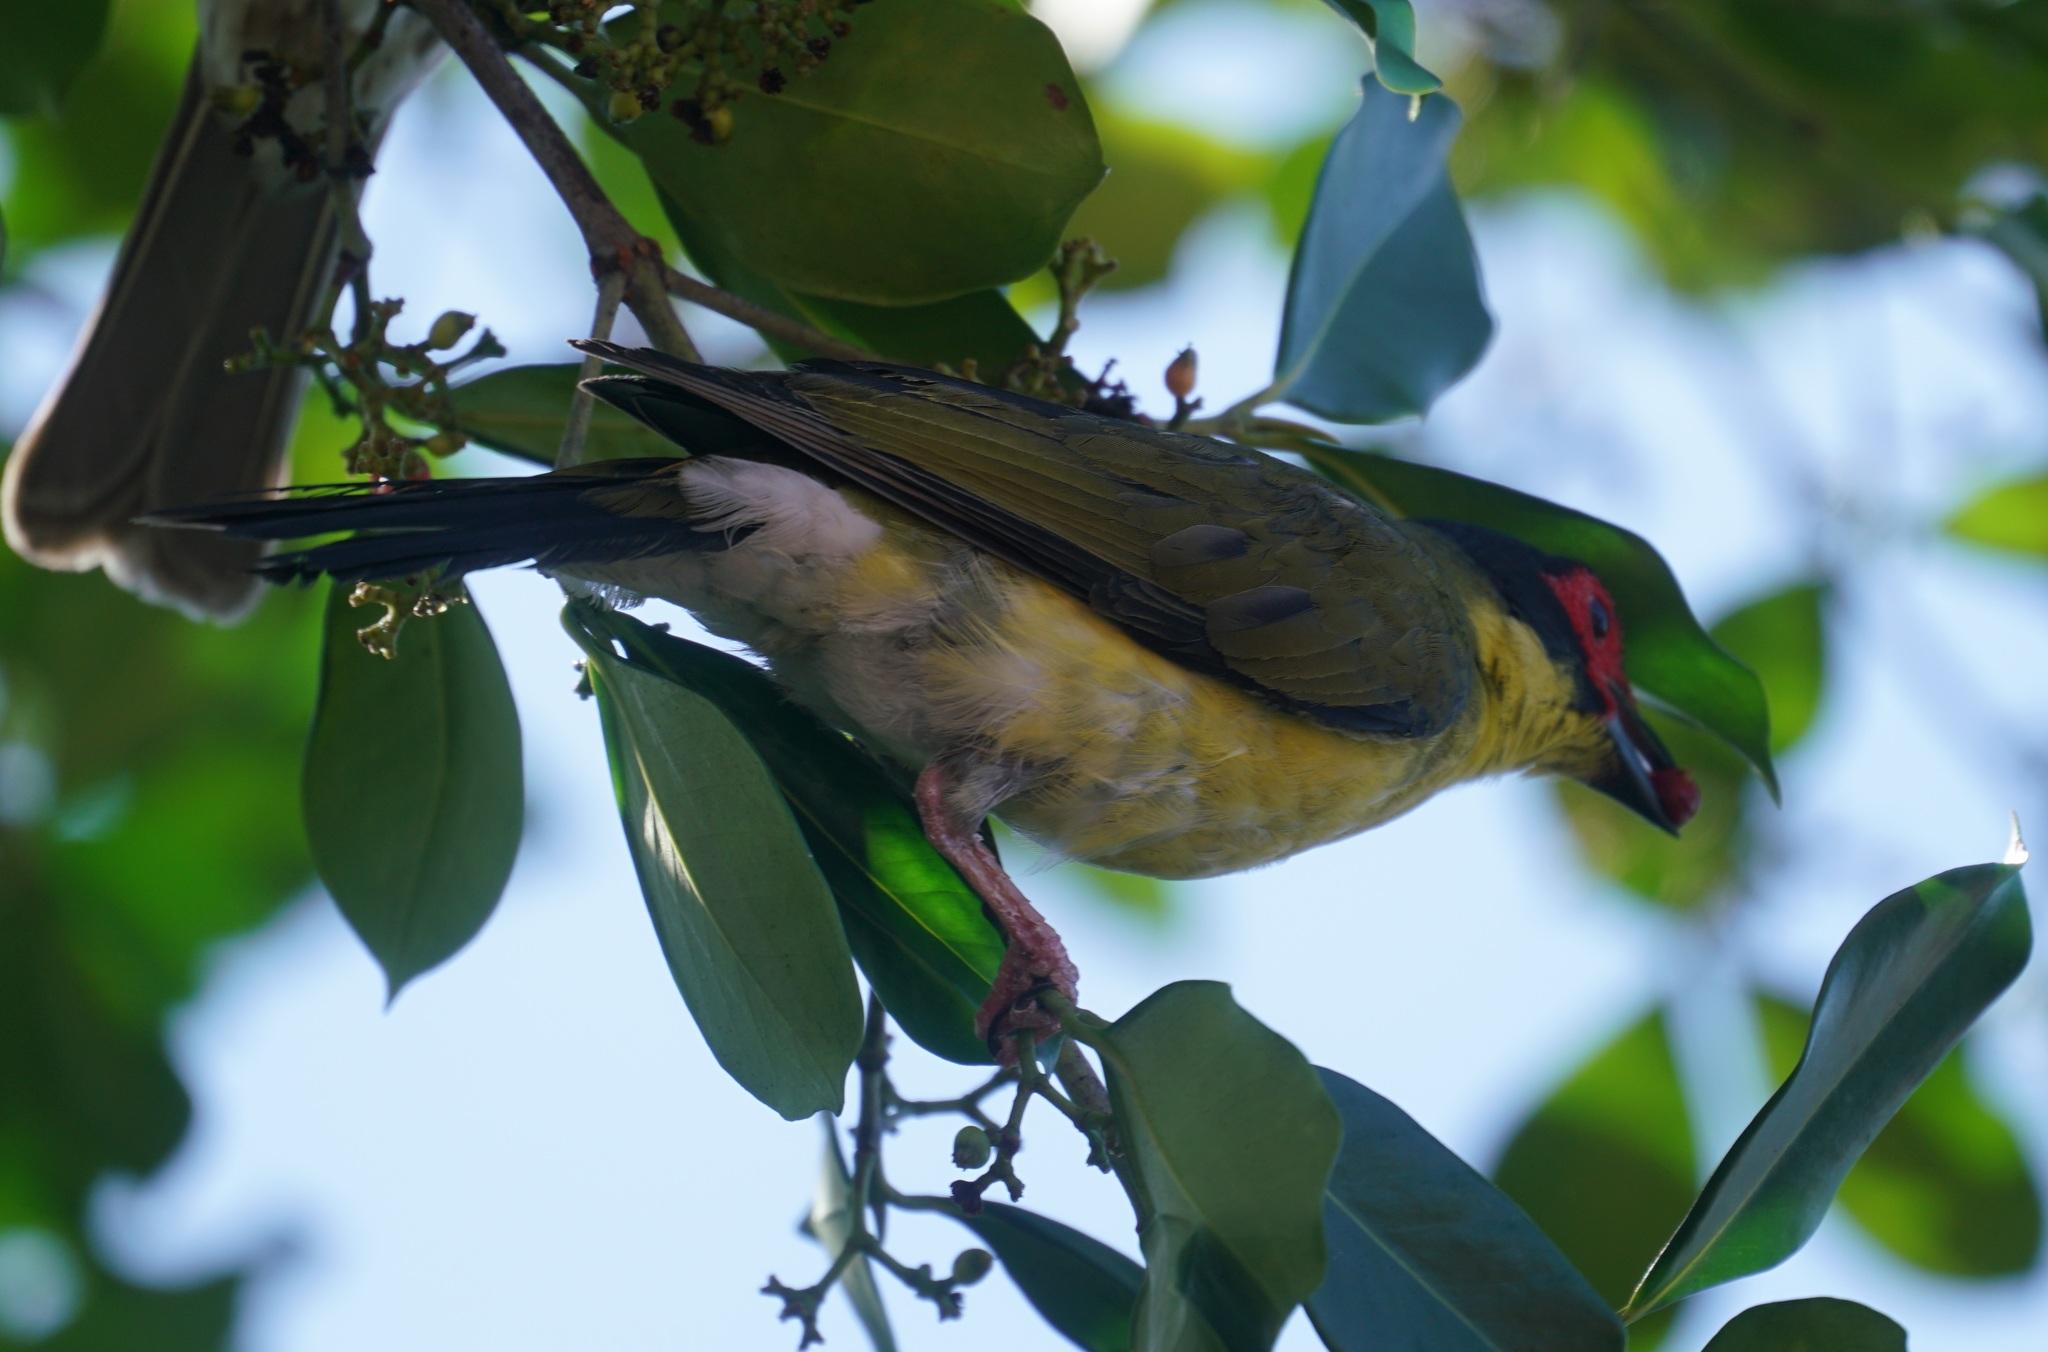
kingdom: Animalia
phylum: Chordata
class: Aves
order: Passeriformes
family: Oriolidae
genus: Sphecotheres
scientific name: Sphecotheres vieilloti
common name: Australasian figbird
